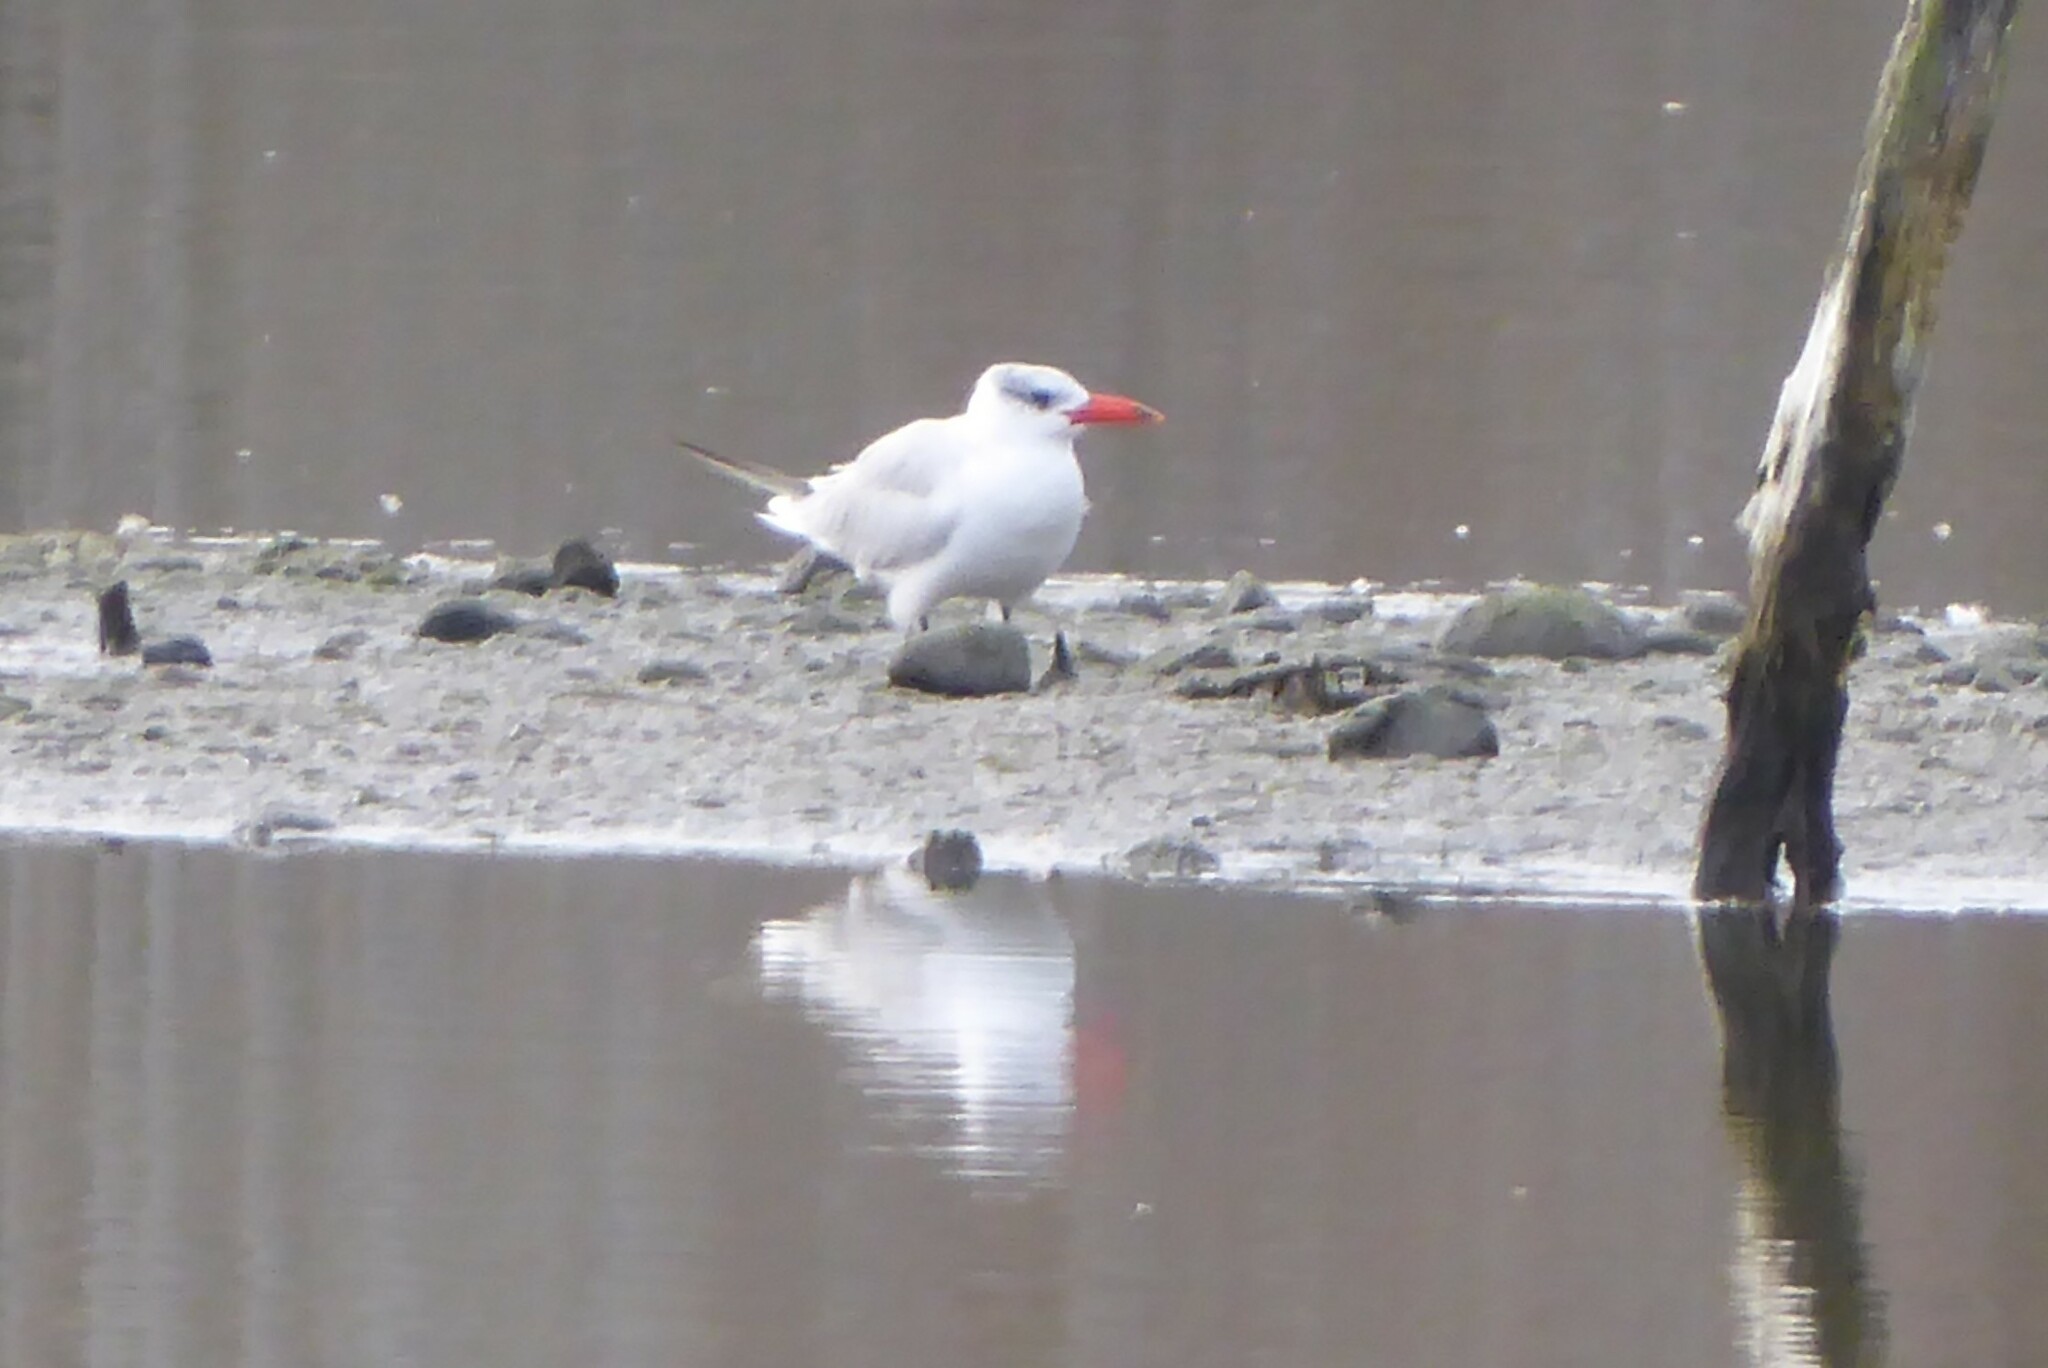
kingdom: Animalia
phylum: Chordata
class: Aves
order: Charadriiformes
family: Laridae
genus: Hydroprogne
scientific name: Hydroprogne caspia
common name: Caspian tern
